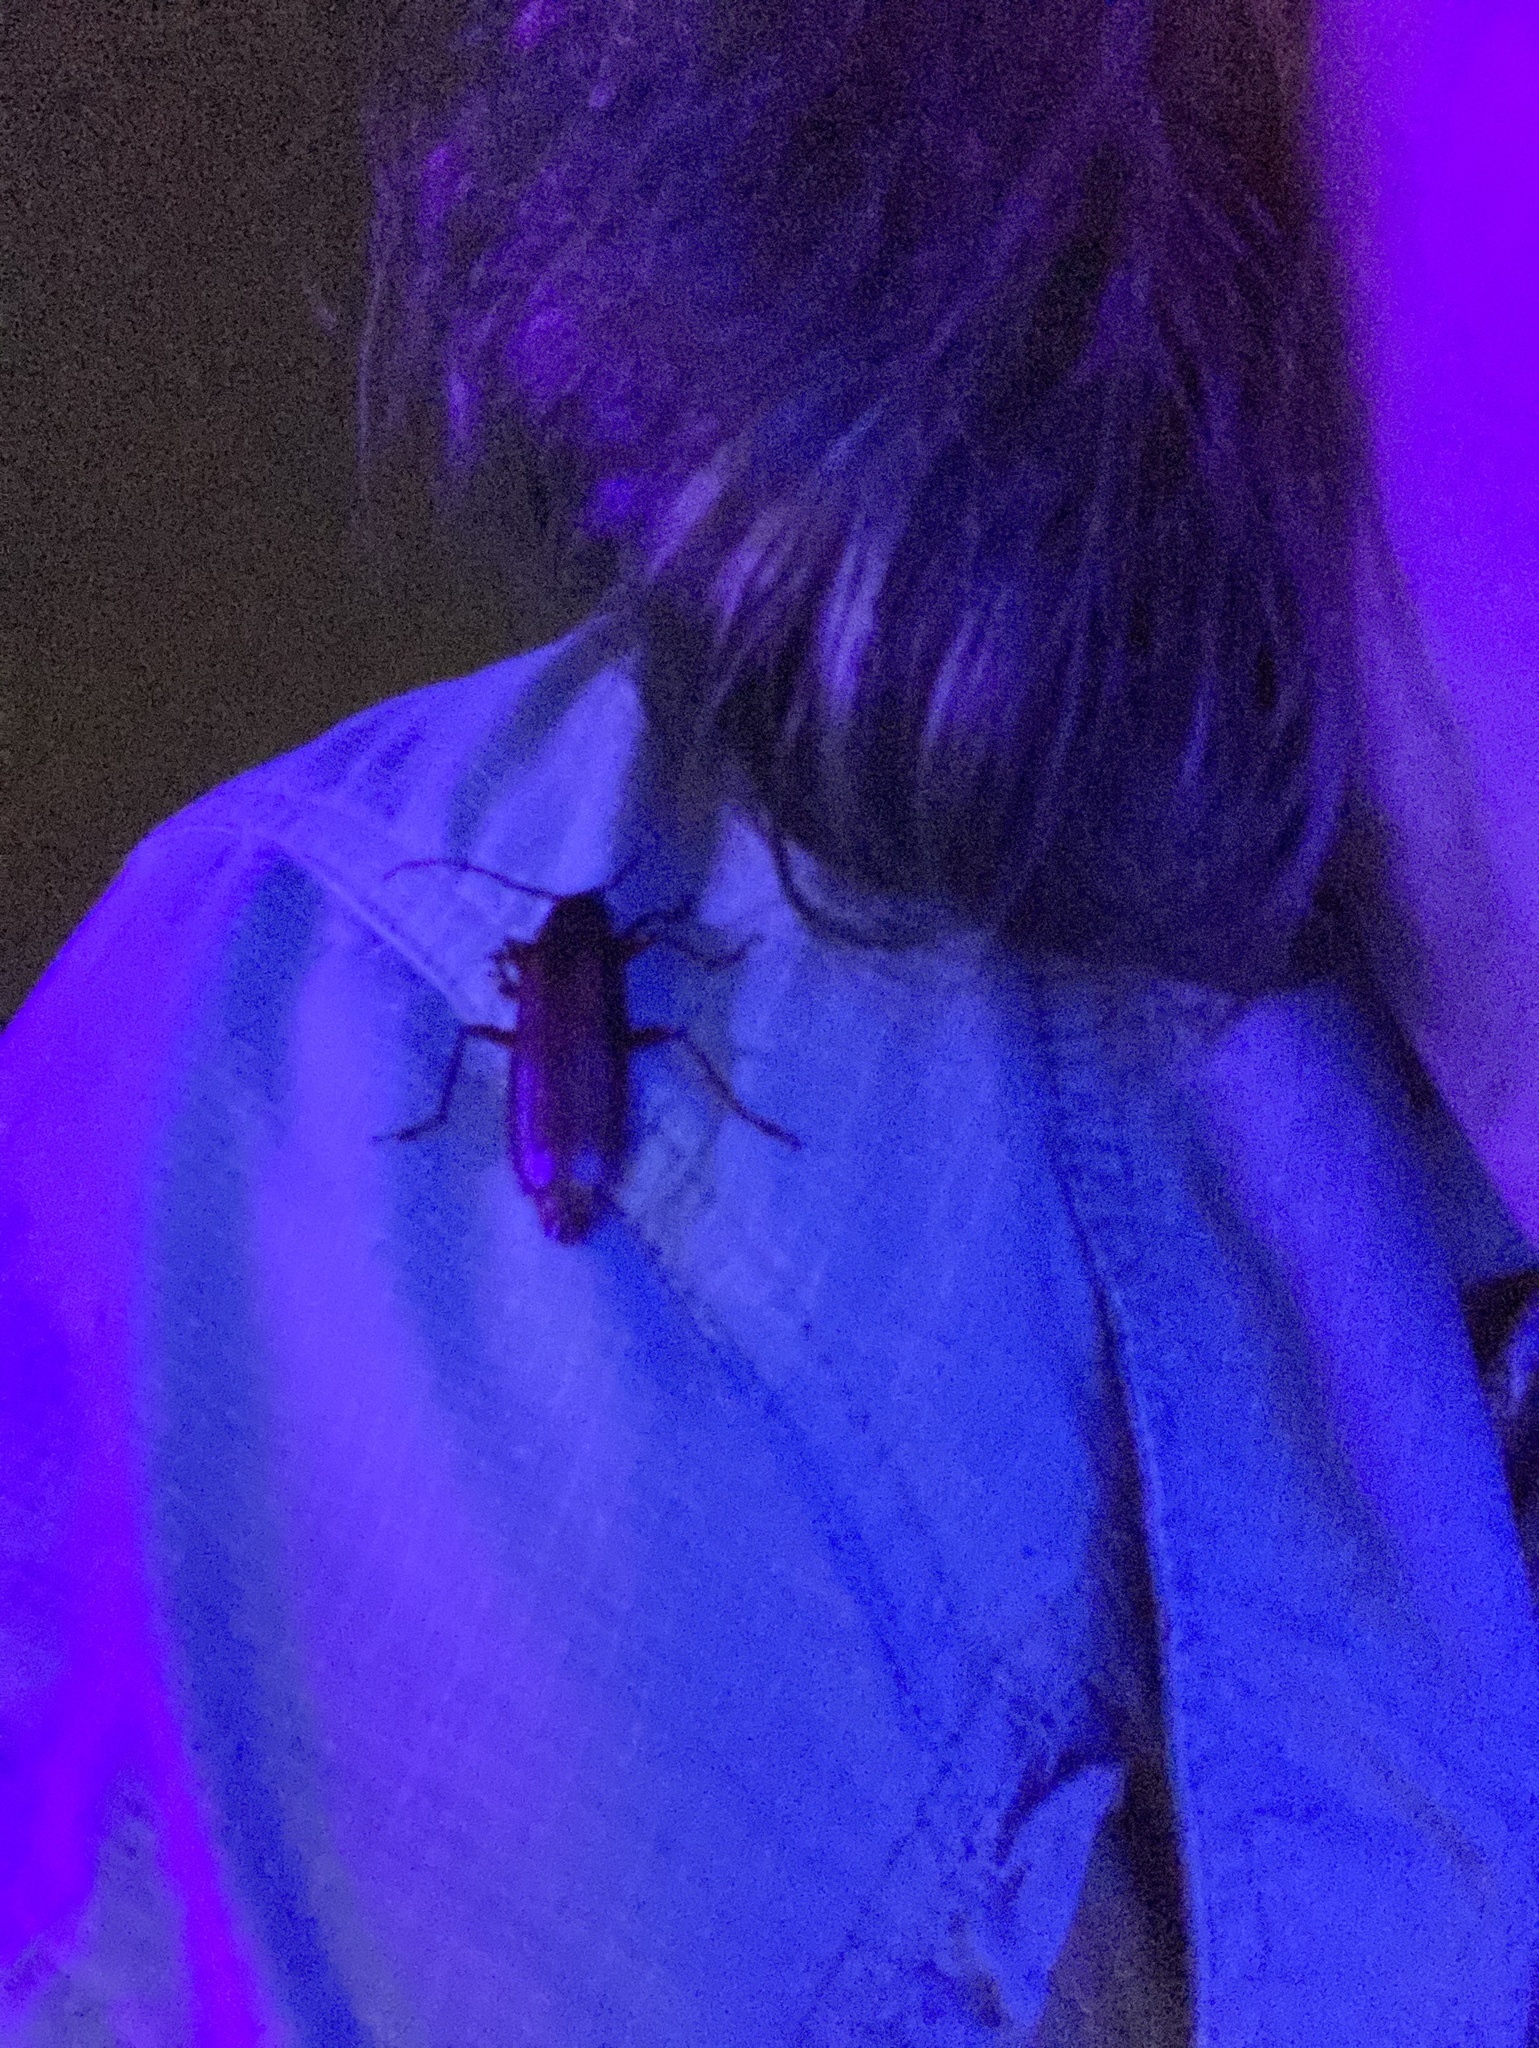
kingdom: Animalia
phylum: Arthropoda
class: Insecta
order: Coleoptera
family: Cerambycidae
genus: Orthosoma
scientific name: Orthosoma brunneum
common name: Brown prionid beetle
